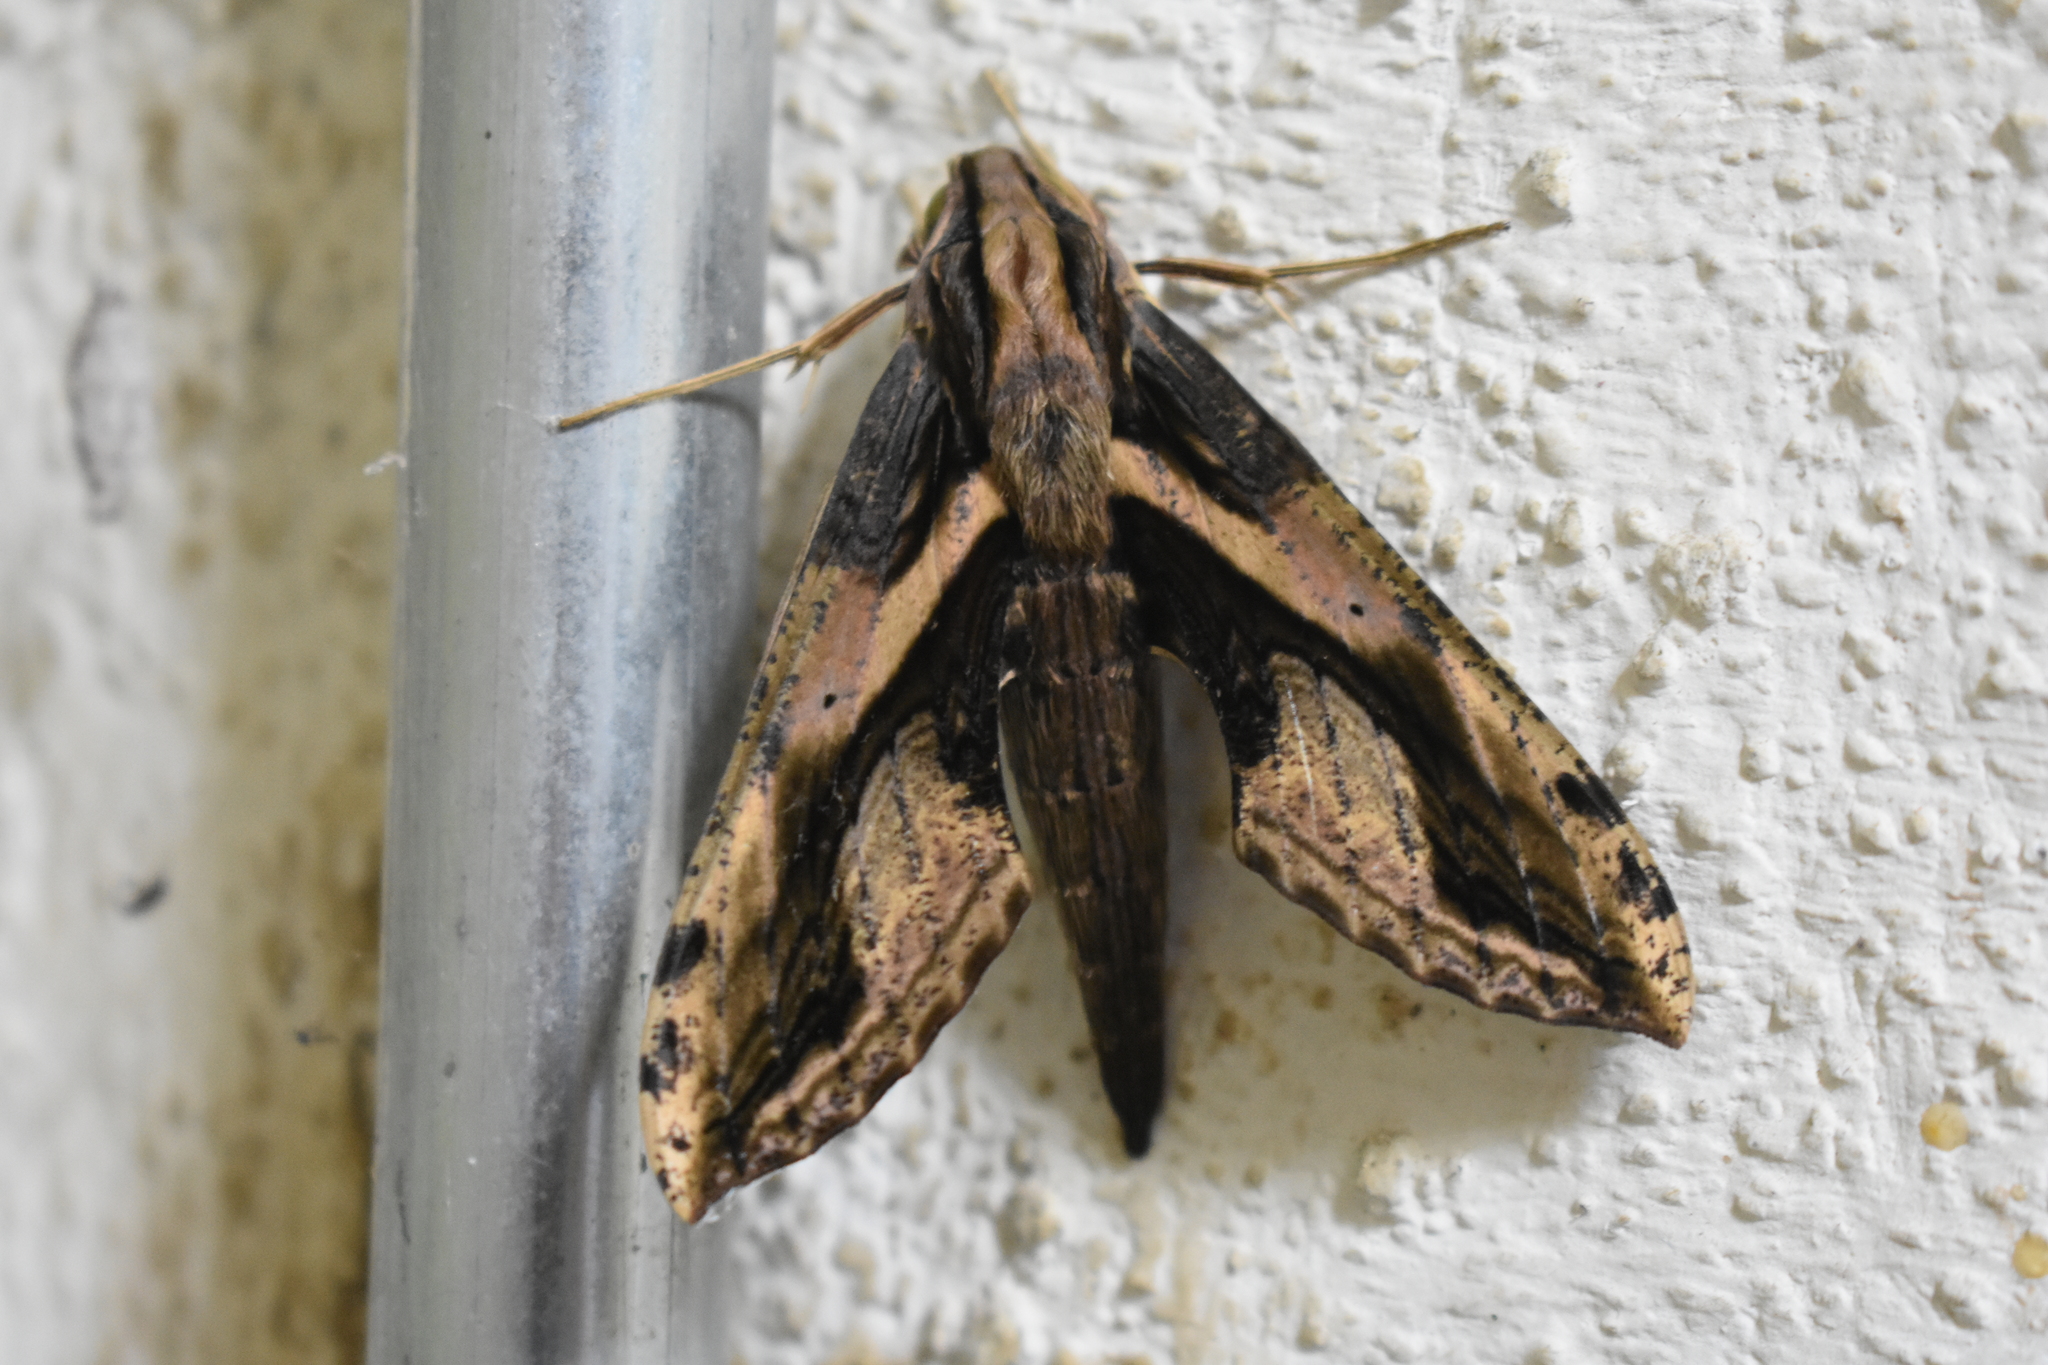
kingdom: Animalia
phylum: Arthropoda
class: Insecta
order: Lepidoptera
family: Sphingidae
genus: Xylophanes
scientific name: Xylophanes ceratomioides
